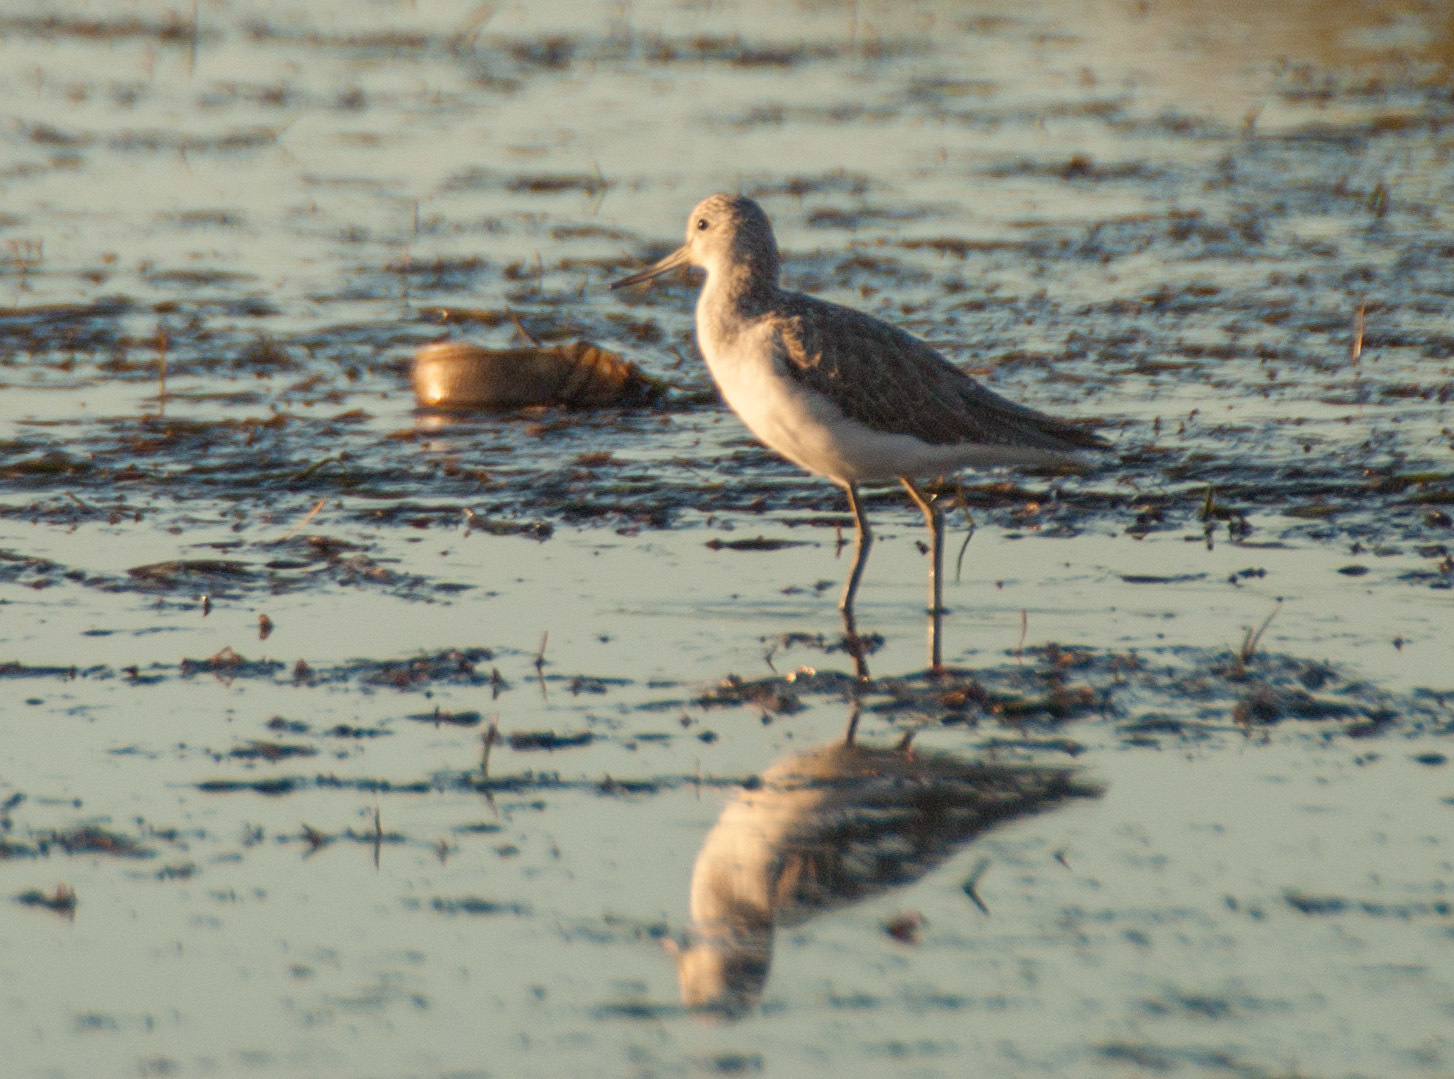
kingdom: Animalia
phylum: Chordata
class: Aves
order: Charadriiformes
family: Scolopacidae
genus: Tringa
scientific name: Tringa nebularia
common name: Common greenshank
